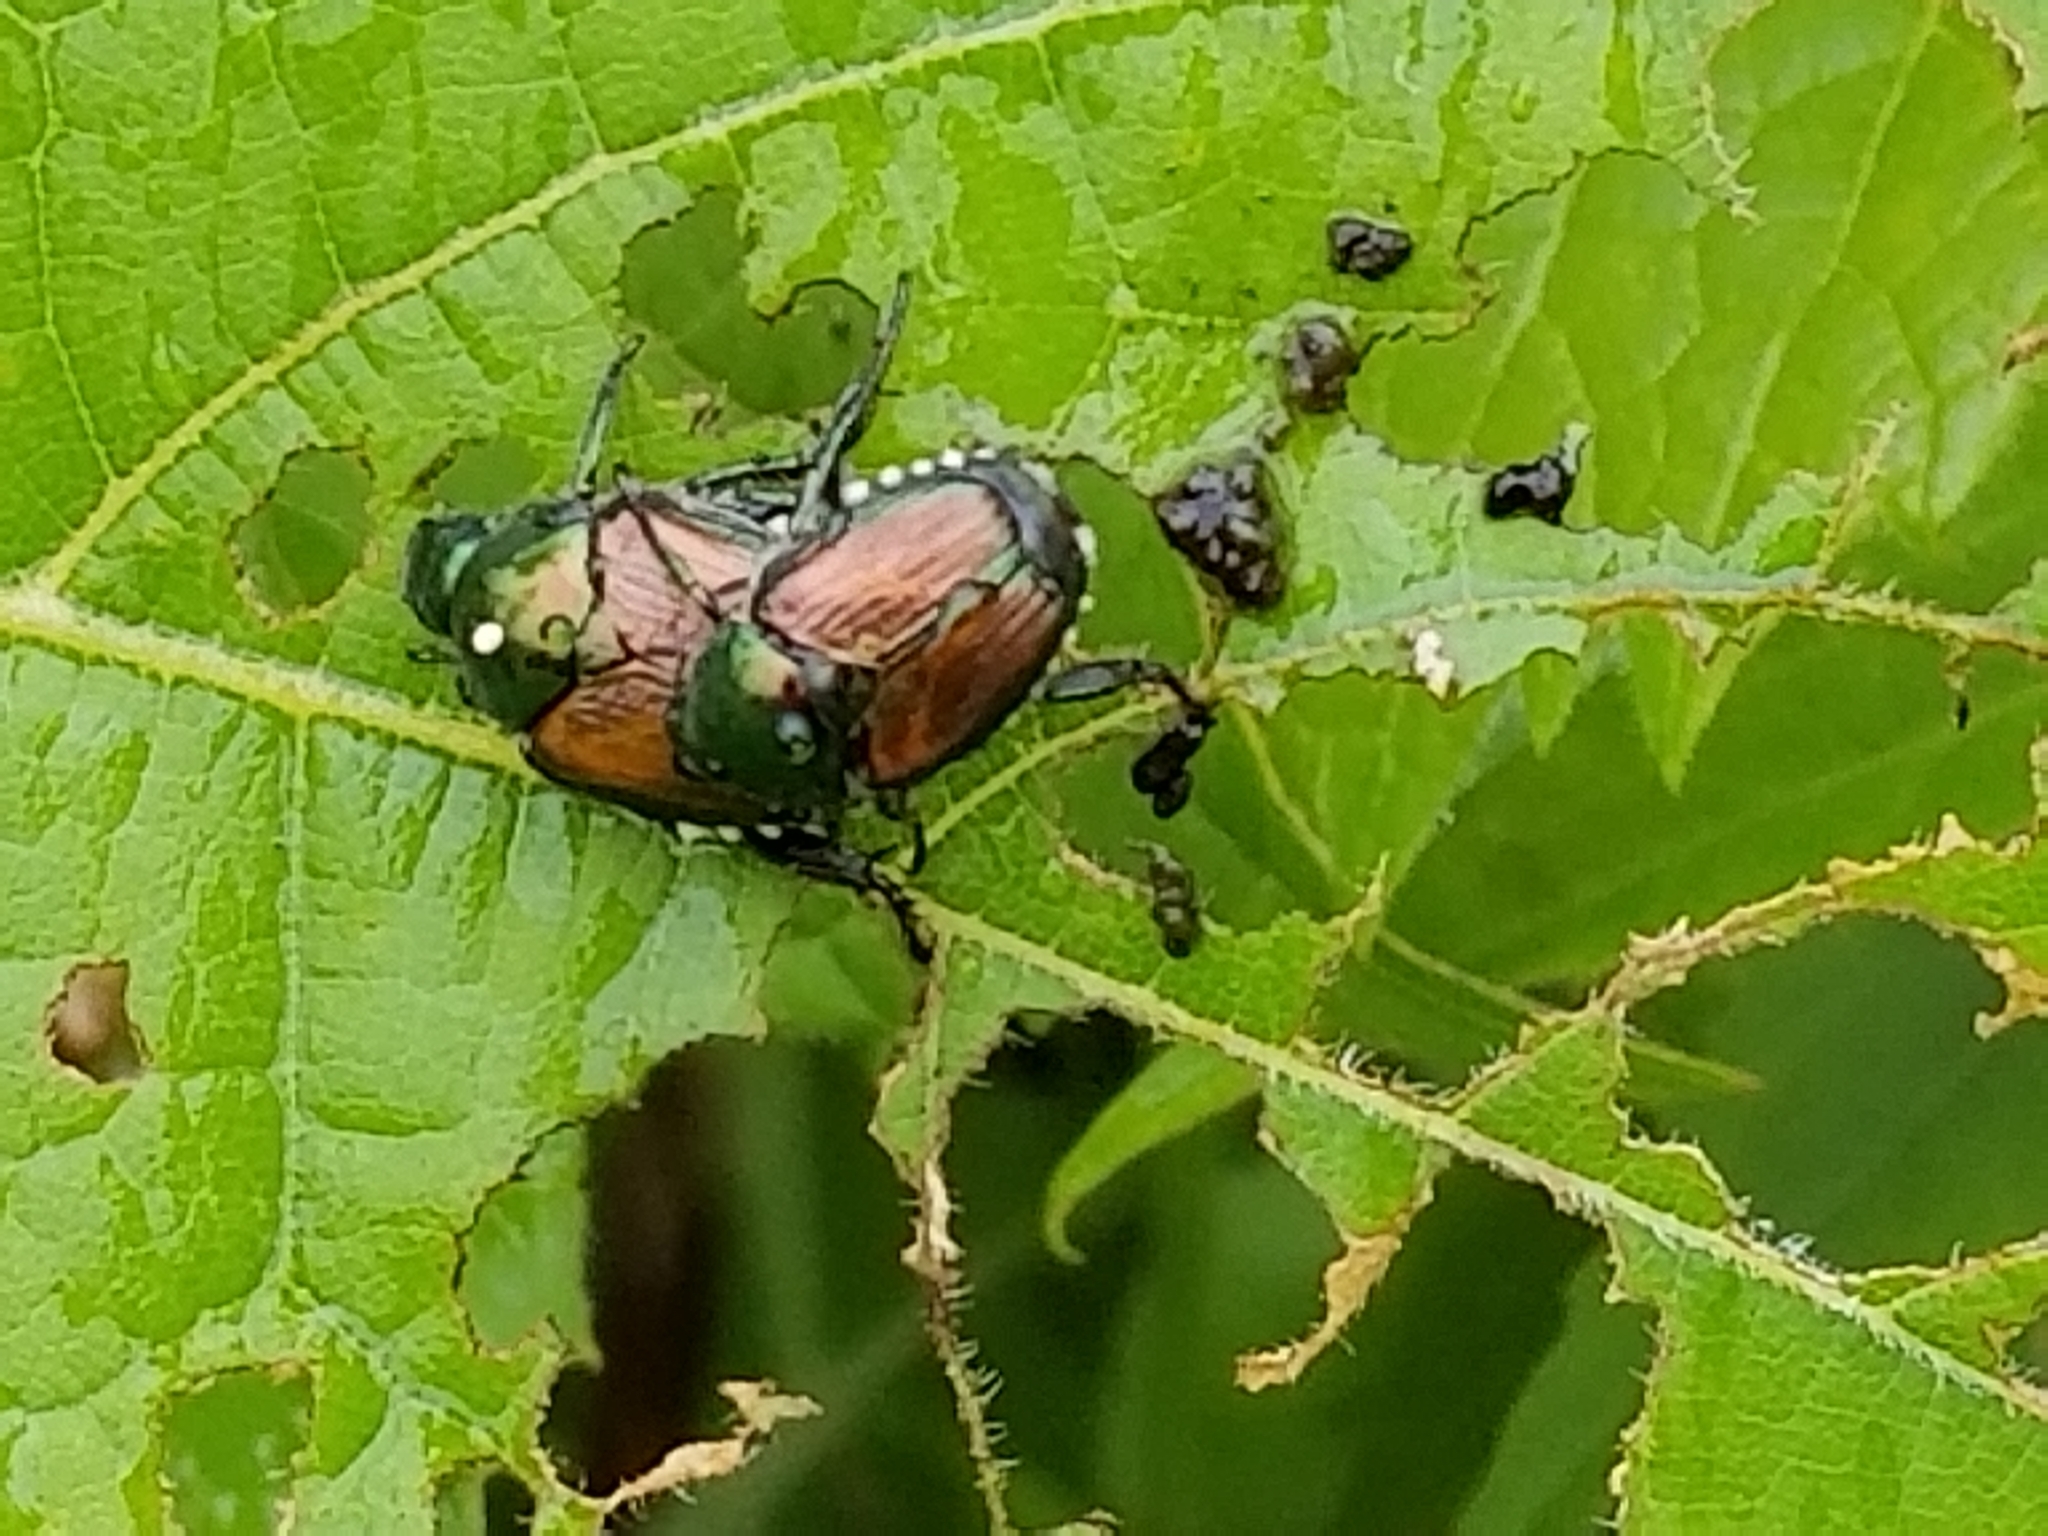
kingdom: Animalia
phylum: Arthropoda
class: Insecta
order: Coleoptera
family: Scarabaeidae
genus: Popillia
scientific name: Popillia japonica
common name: Japanese beetle
